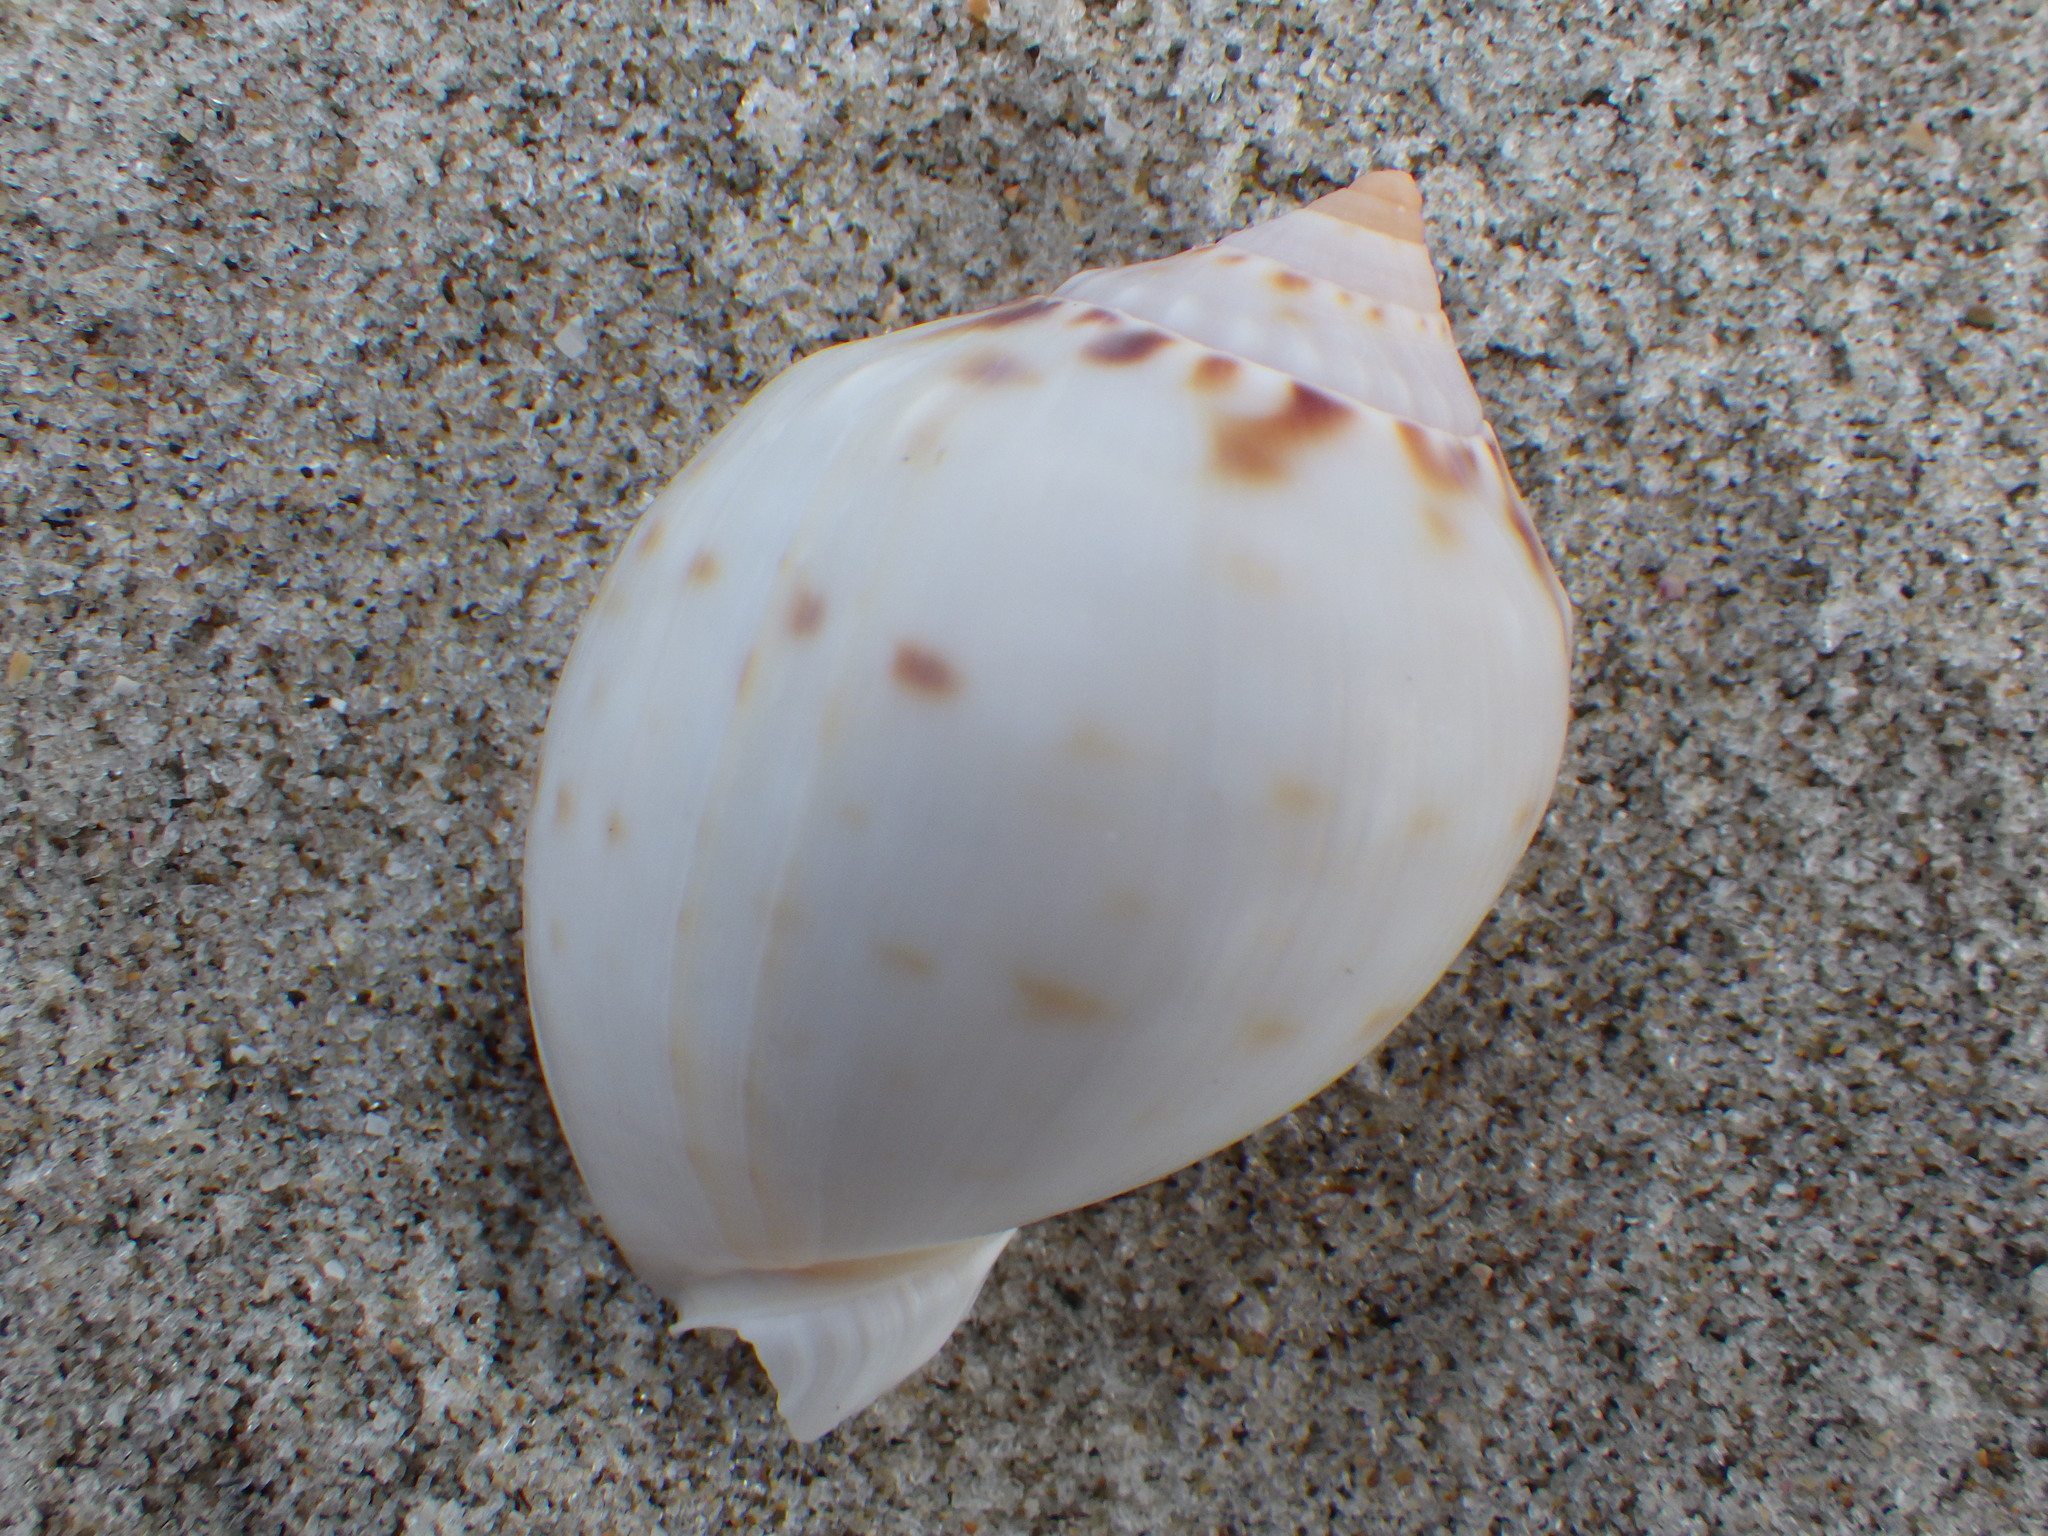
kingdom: Animalia
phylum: Mollusca
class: Gastropoda
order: Littorinimorpha
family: Cassidae
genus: Semicassis
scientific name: Semicassis labiata
